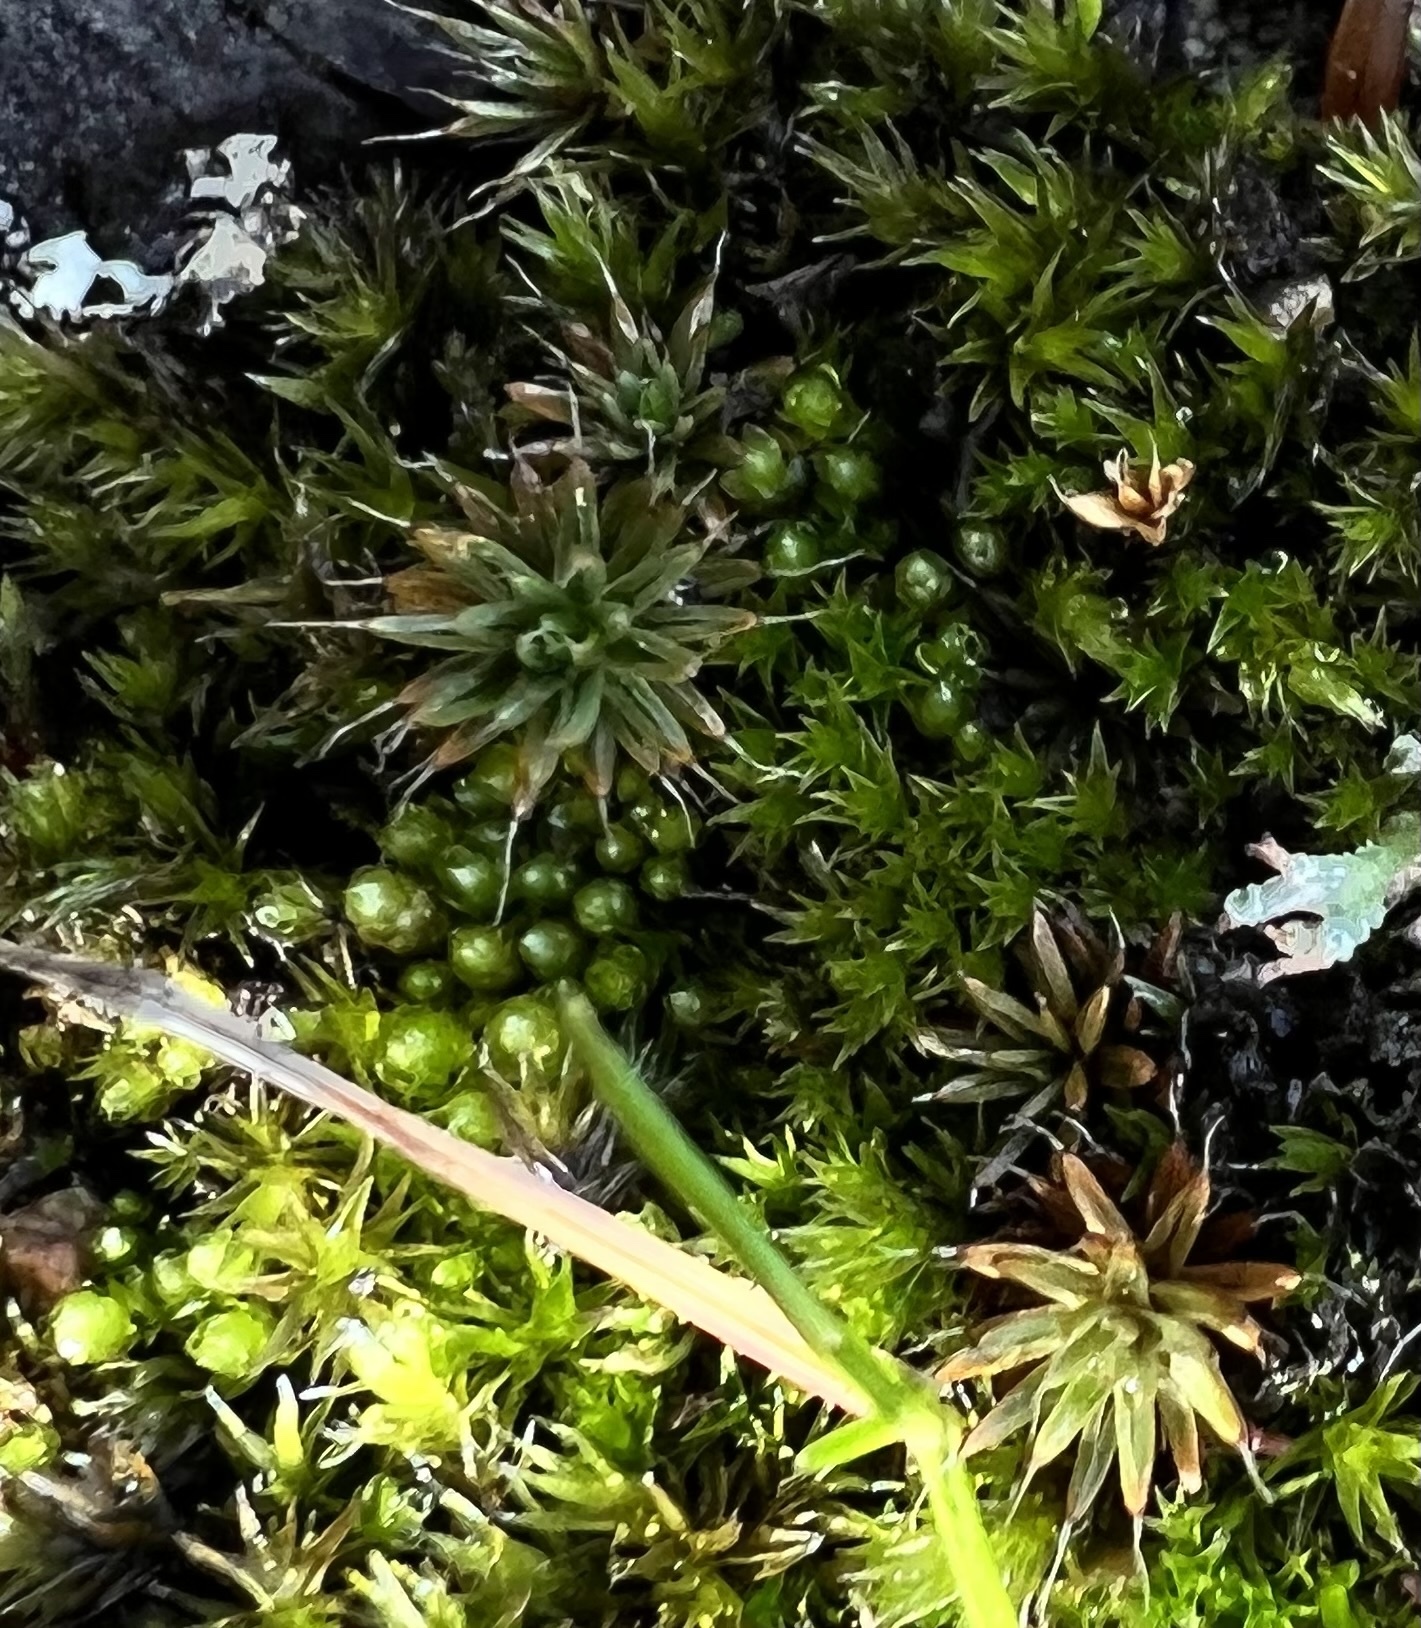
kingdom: Plantae
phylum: Bryophyta
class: Polytrichopsida
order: Polytrichales
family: Polytrichaceae
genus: Polytrichum
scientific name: Polytrichum piliferum
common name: Bristly haircap
